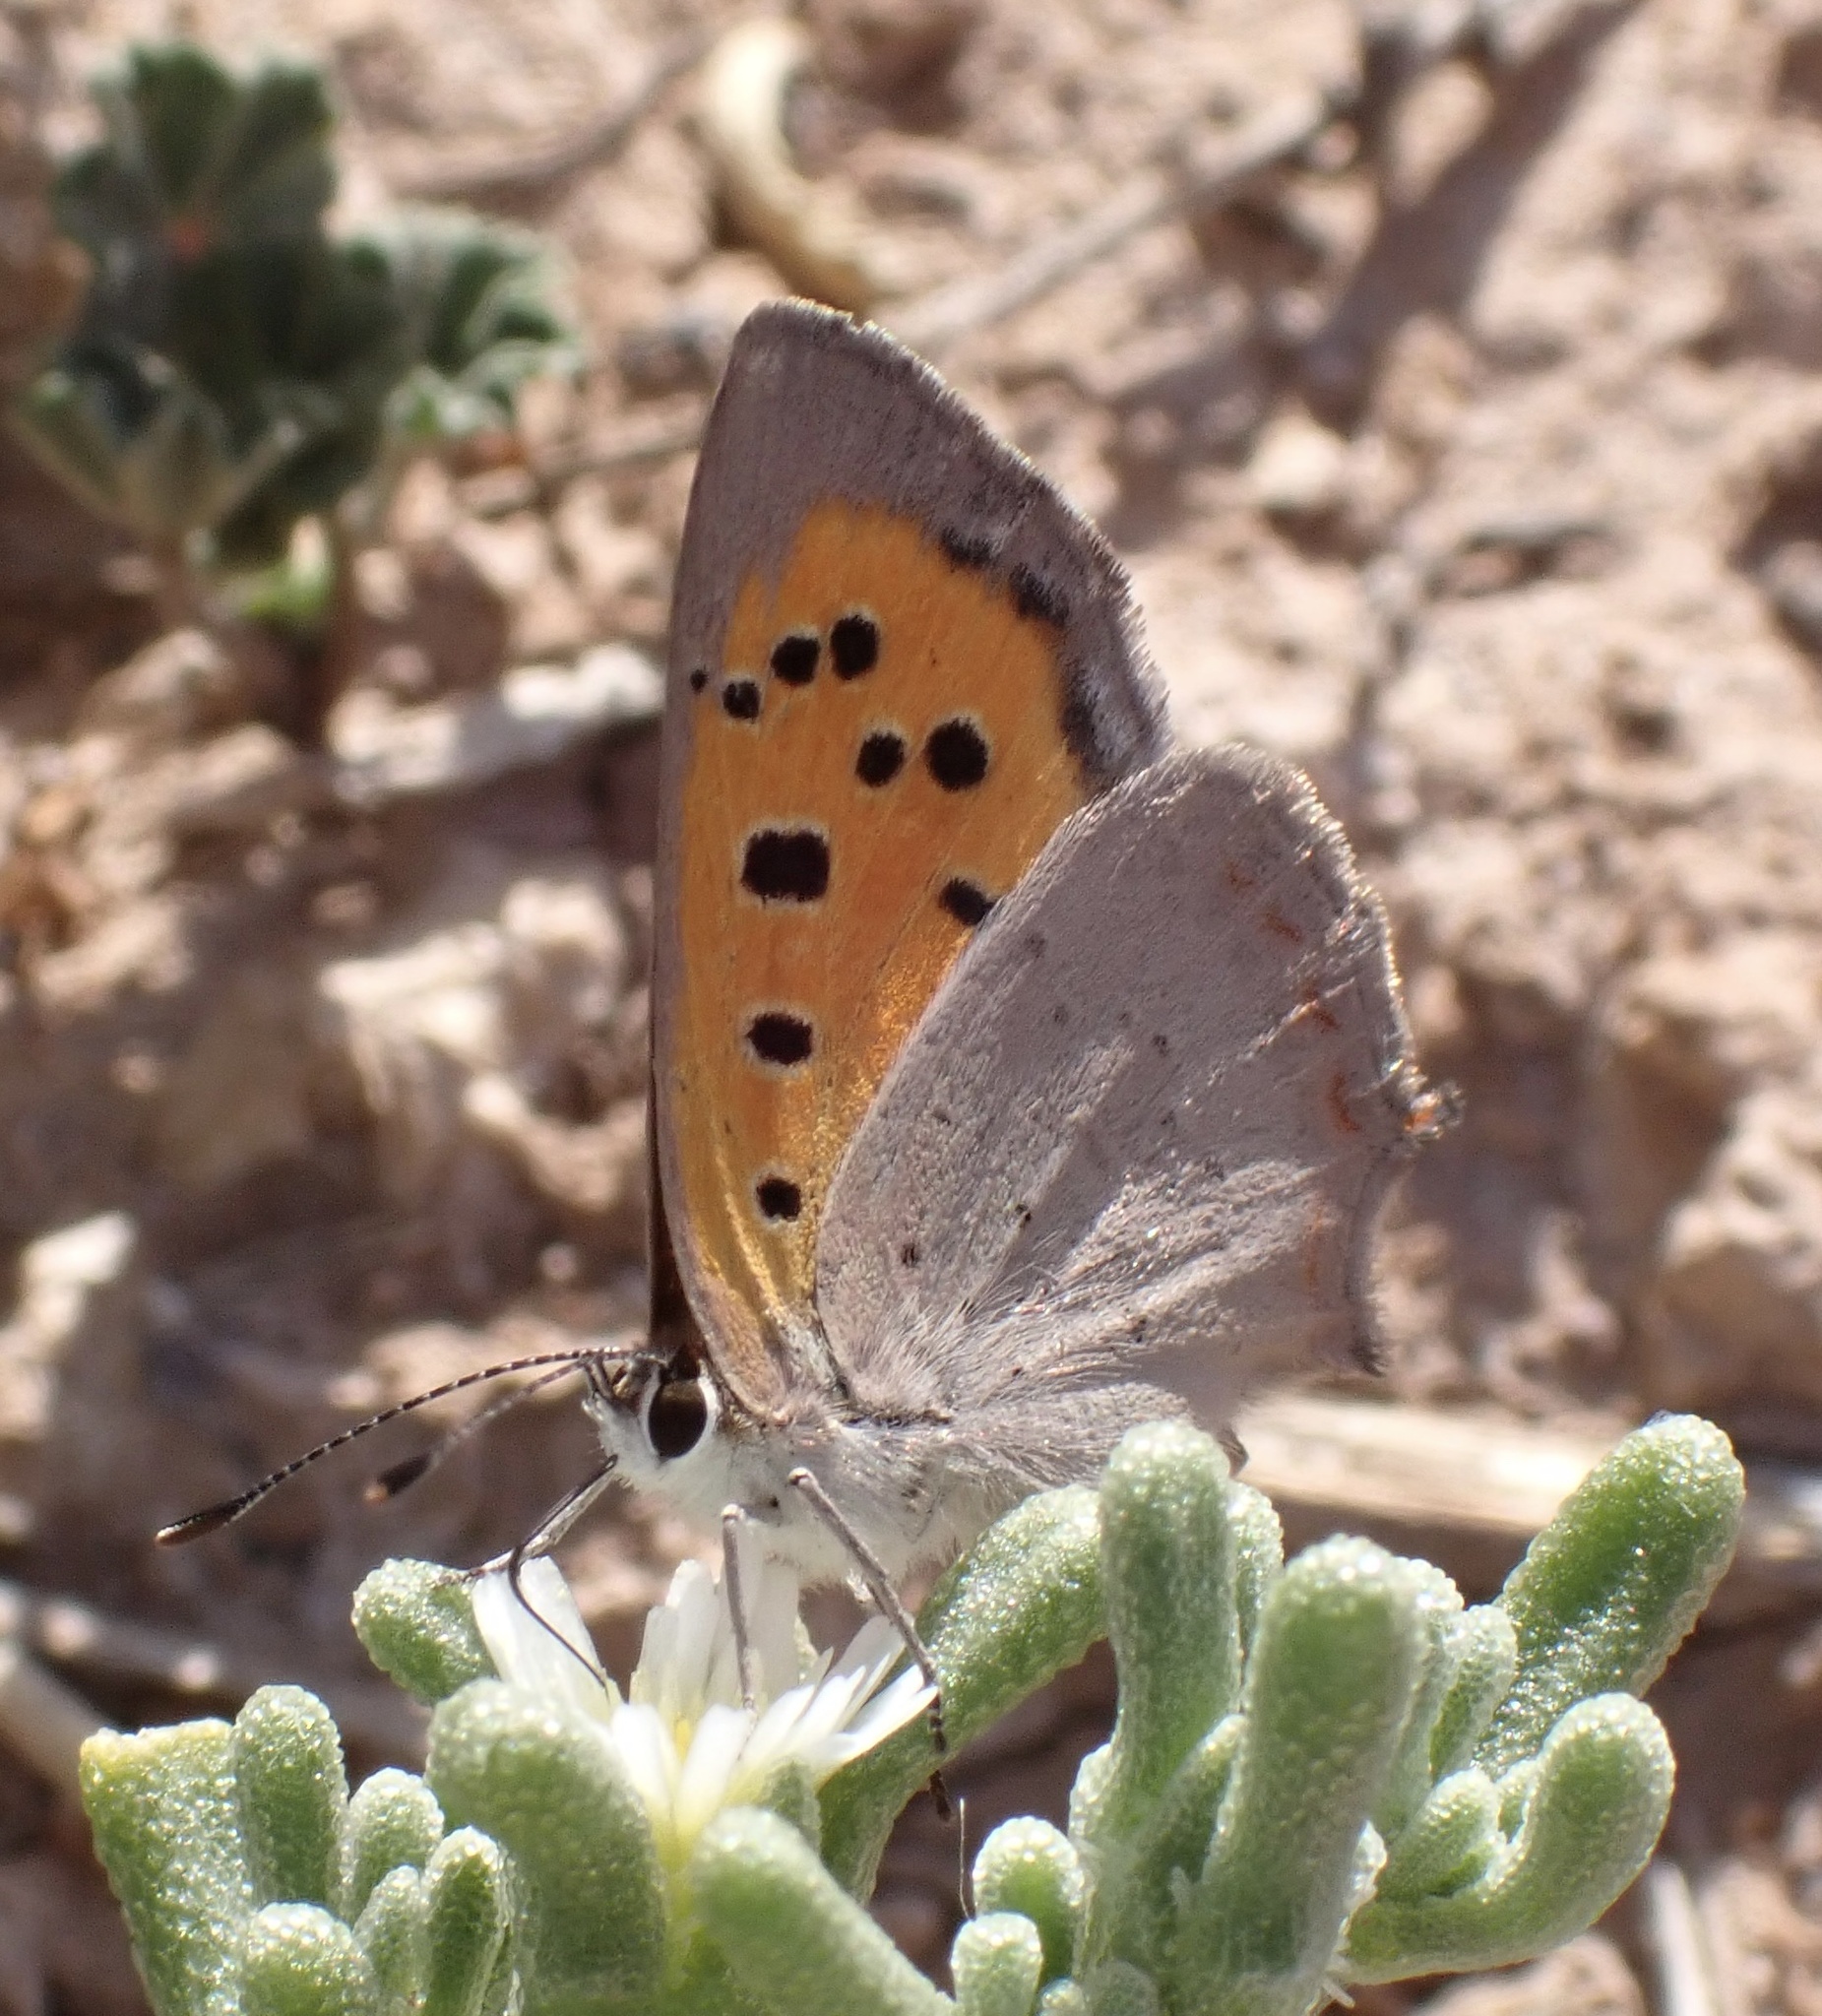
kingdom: Animalia
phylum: Arthropoda
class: Insecta
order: Lepidoptera
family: Lycaenidae
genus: Lycaena
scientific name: Lycaena phlaeas
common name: Small copper
